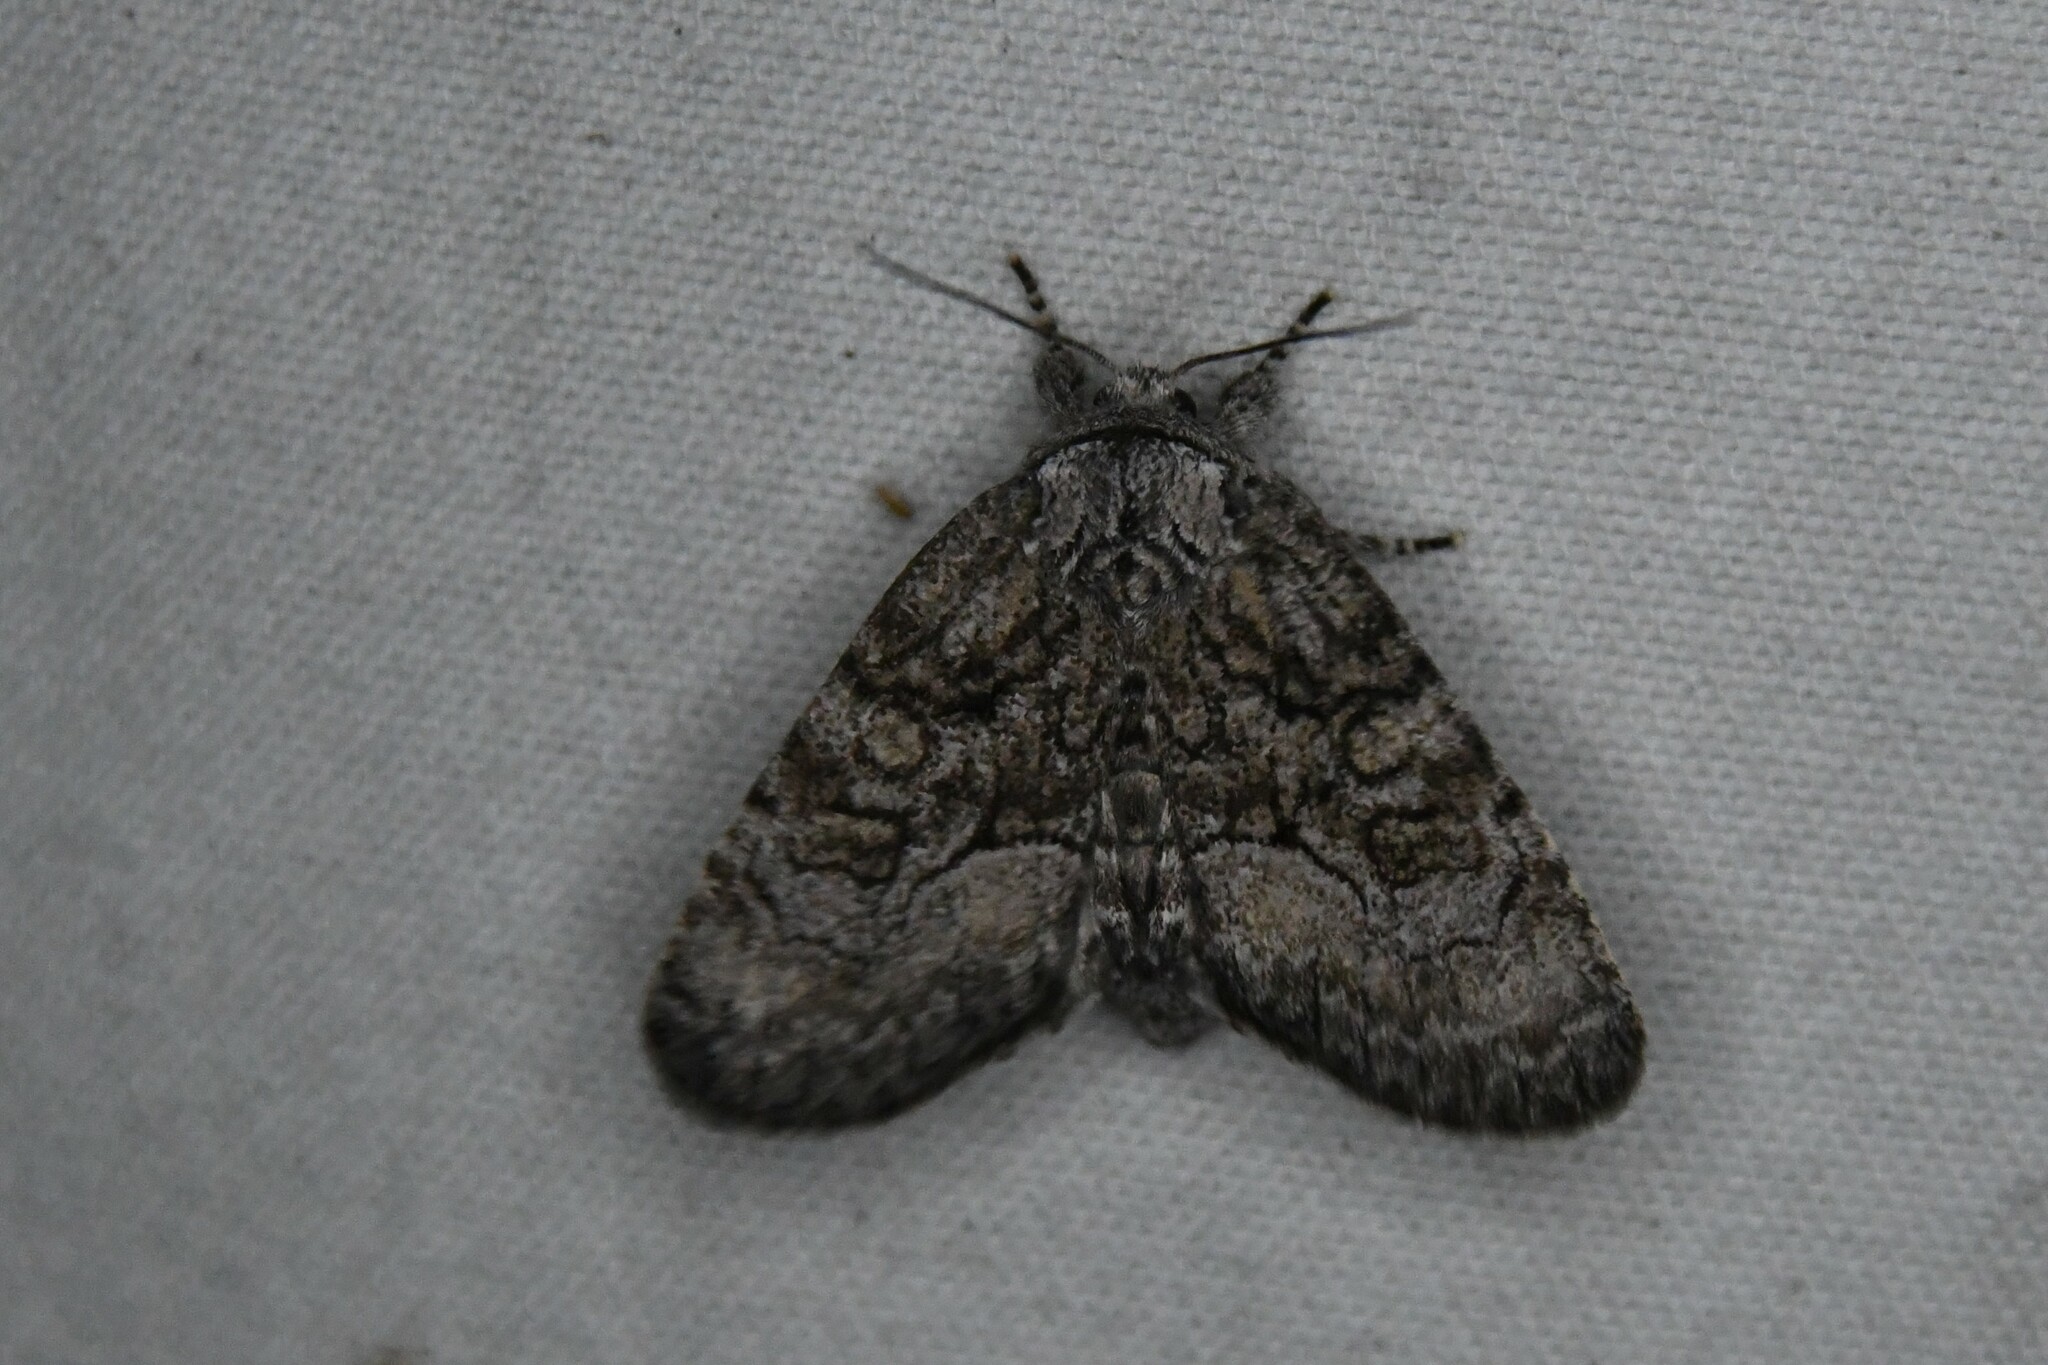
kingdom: Animalia
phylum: Arthropoda
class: Insecta
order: Lepidoptera
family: Noctuidae
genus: Raphia
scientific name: Raphia frater
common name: Brother
